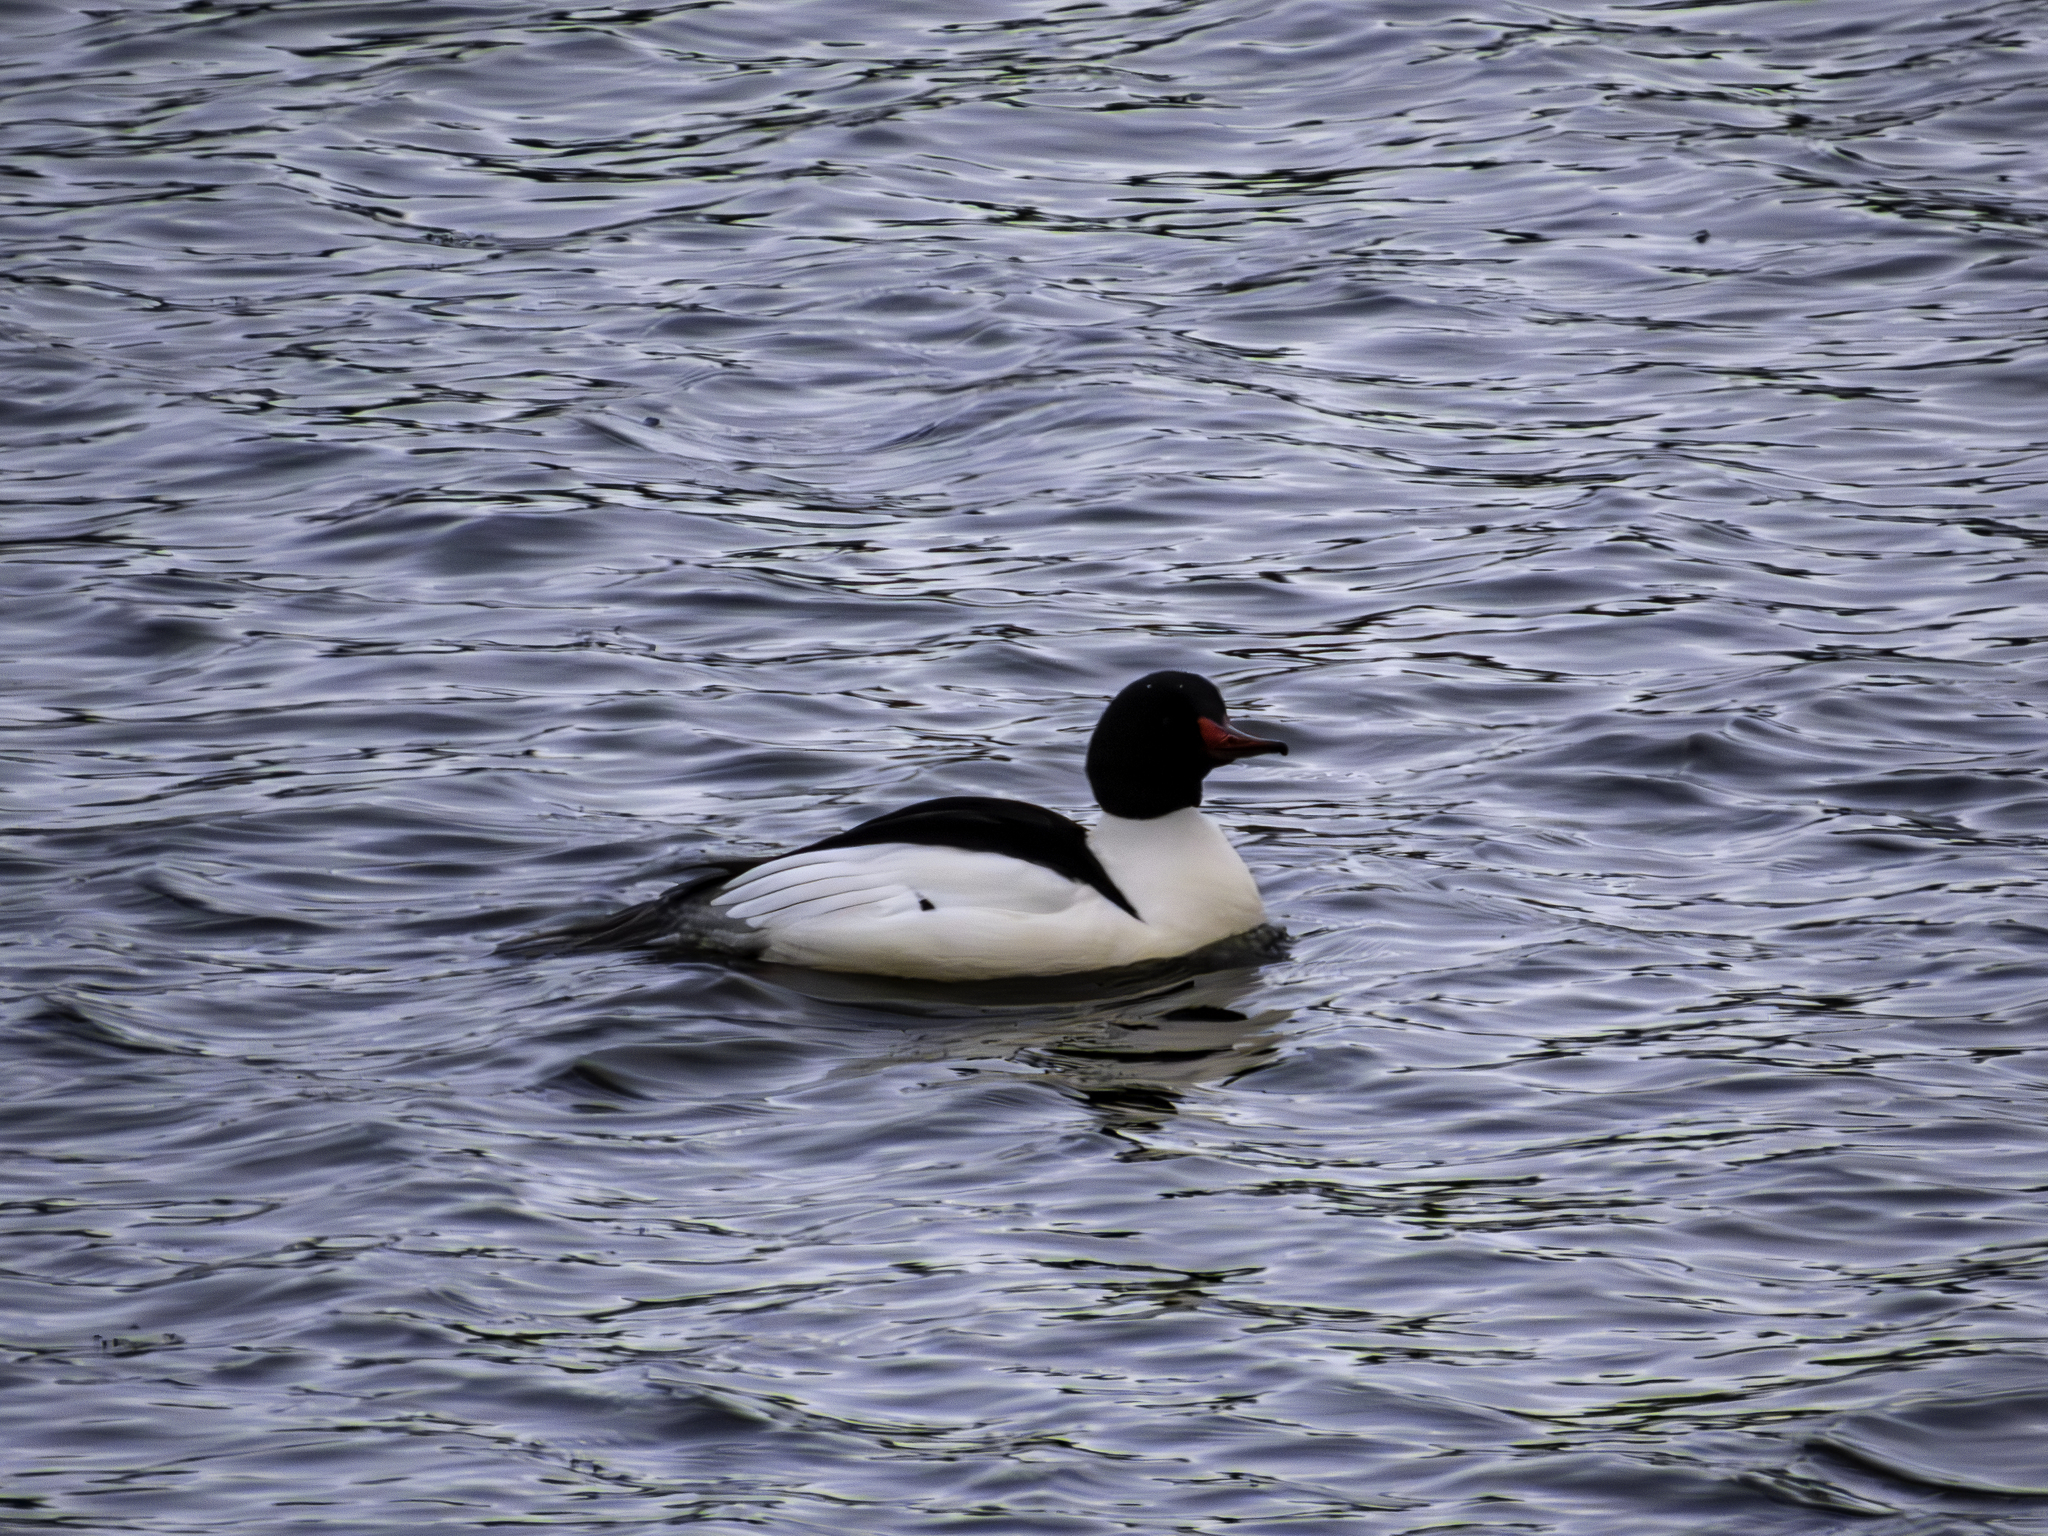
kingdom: Animalia
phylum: Chordata
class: Aves
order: Anseriformes
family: Anatidae
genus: Mergus
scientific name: Mergus merganser
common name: Common merganser
